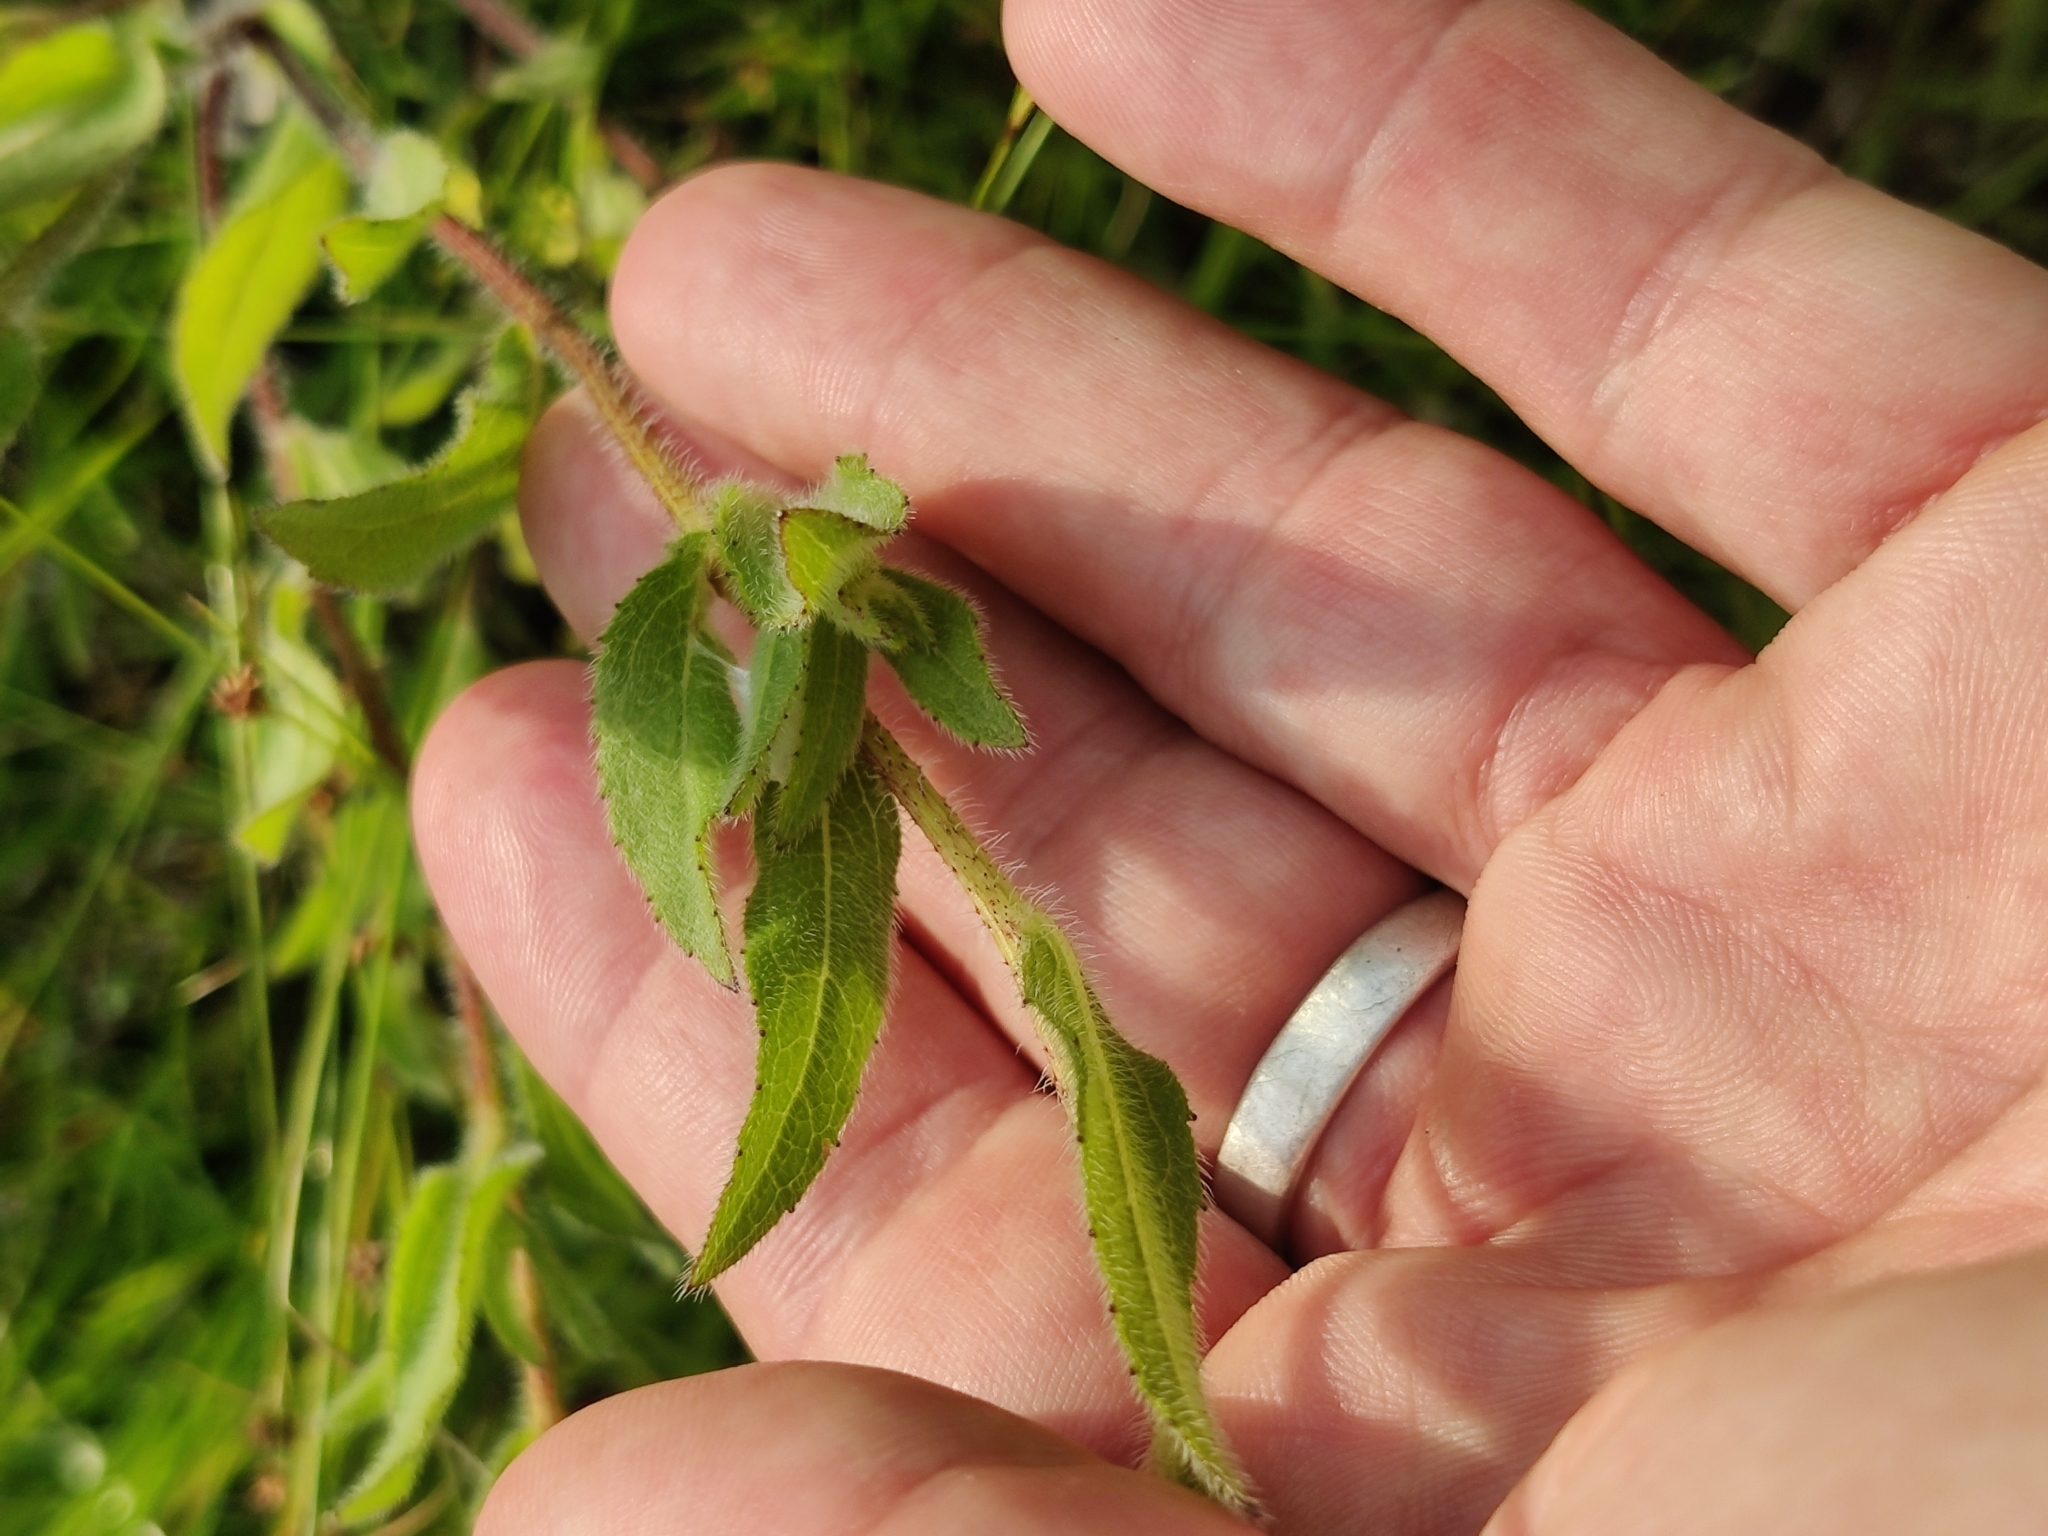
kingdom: Plantae
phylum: Tracheophyta
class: Magnoliopsida
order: Asterales
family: Asteraceae
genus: Rudbeckia
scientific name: Rudbeckia hirta
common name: Black-eyed-susan
